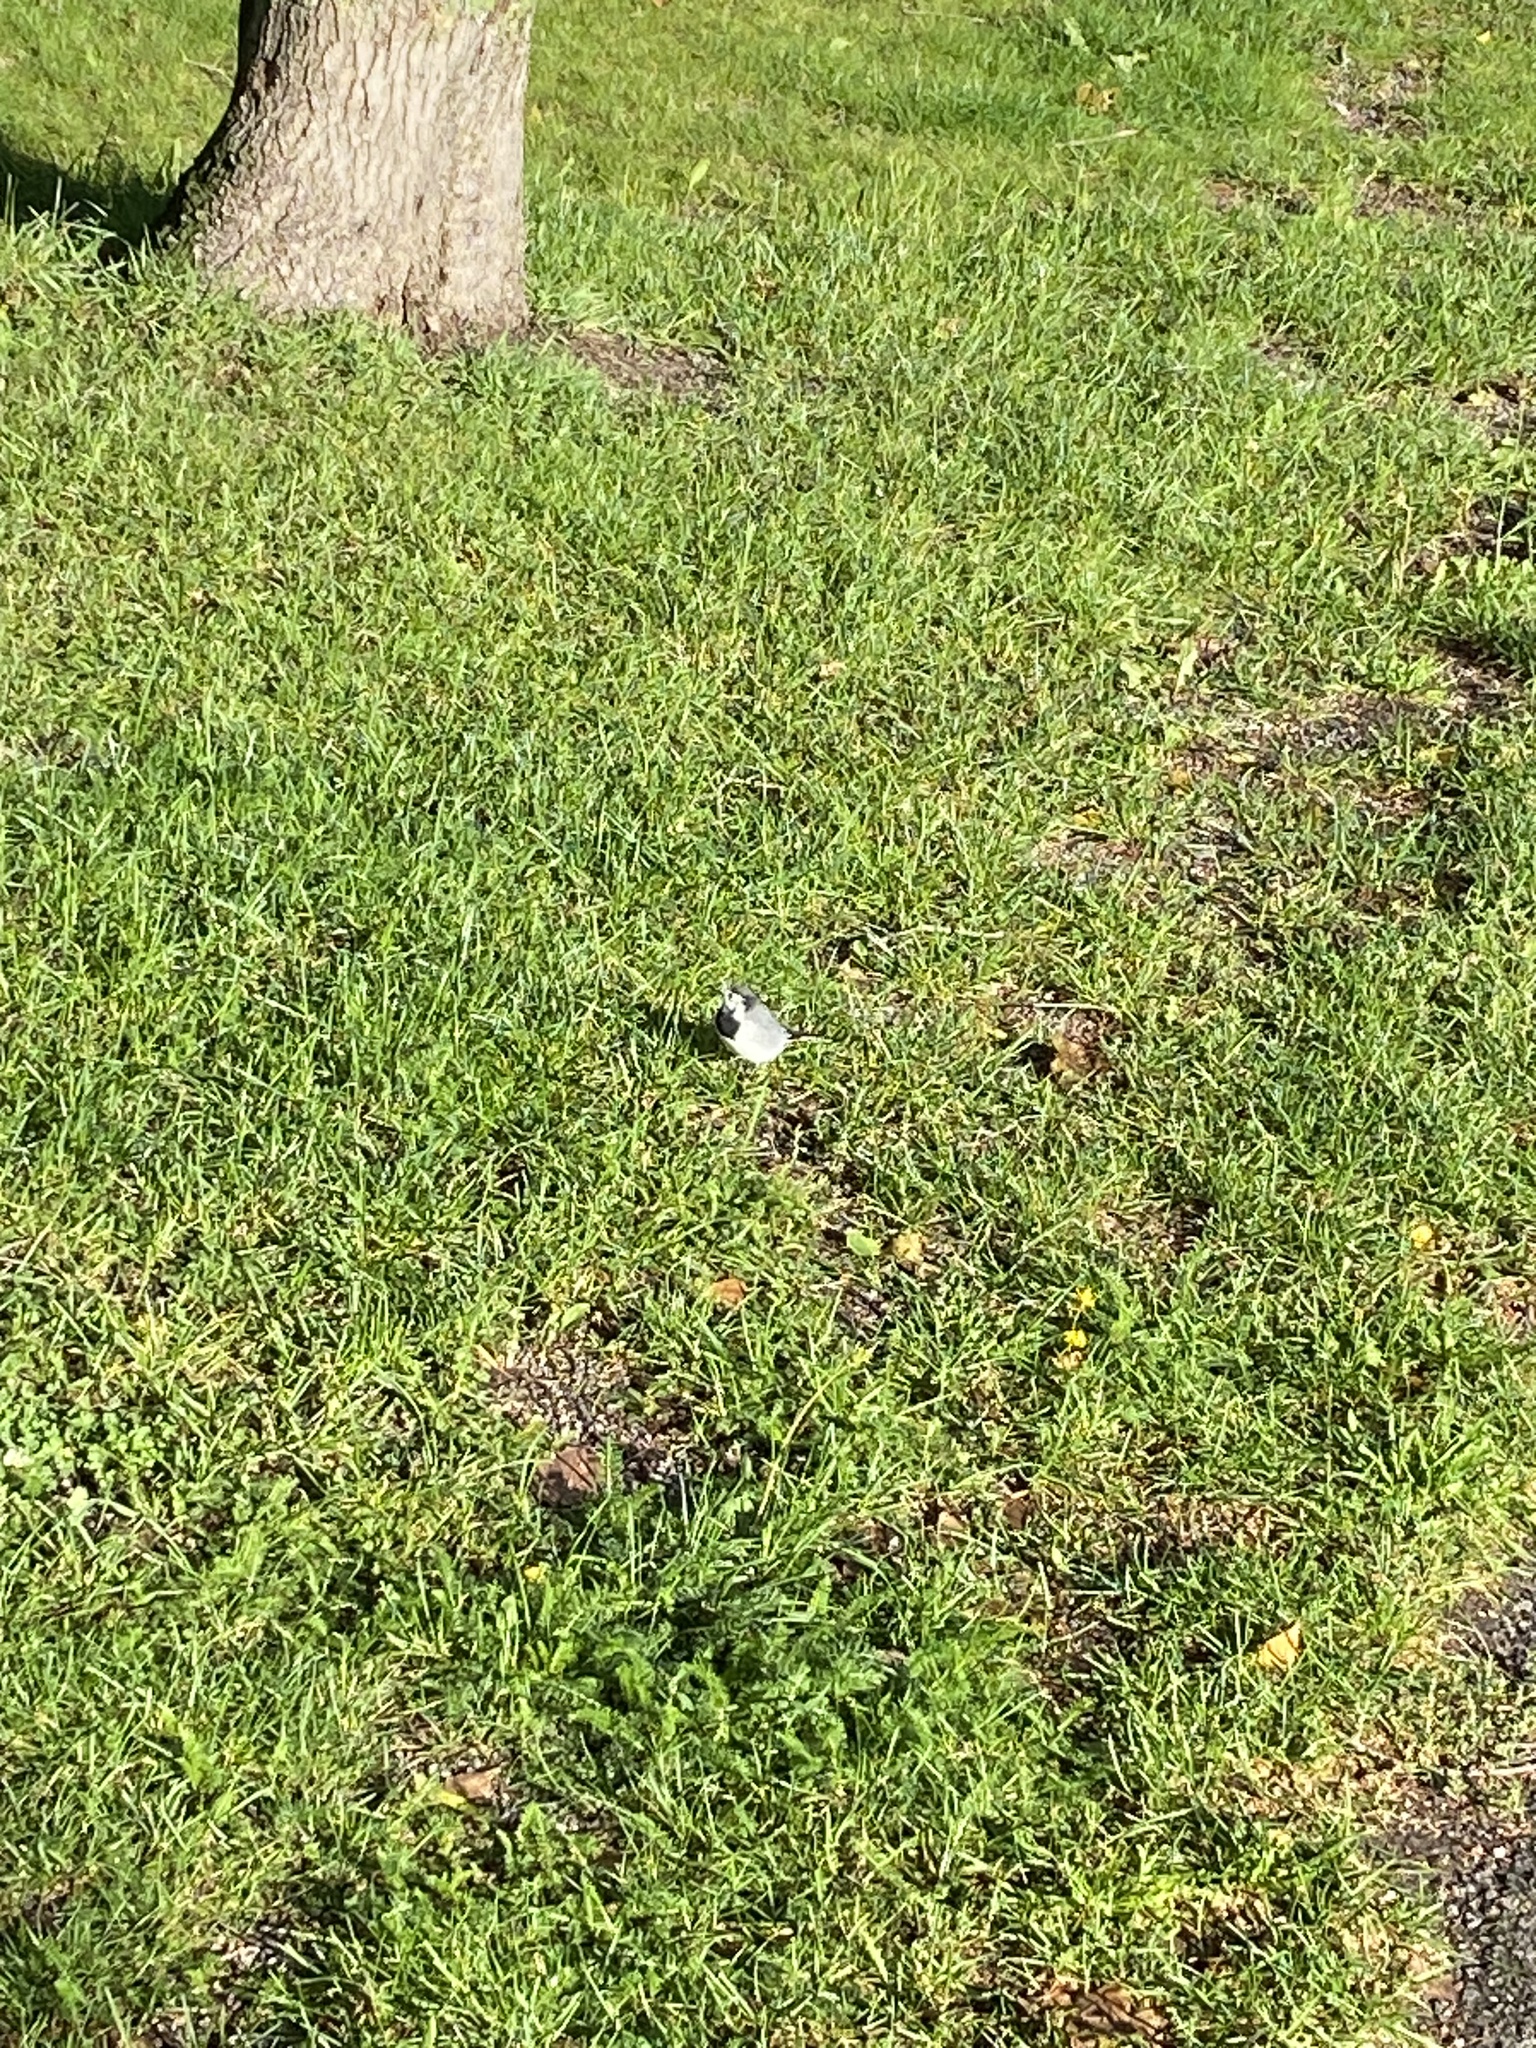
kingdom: Animalia
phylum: Chordata
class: Aves
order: Passeriformes
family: Motacillidae
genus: Motacilla
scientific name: Motacilla alba
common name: White wagtail
